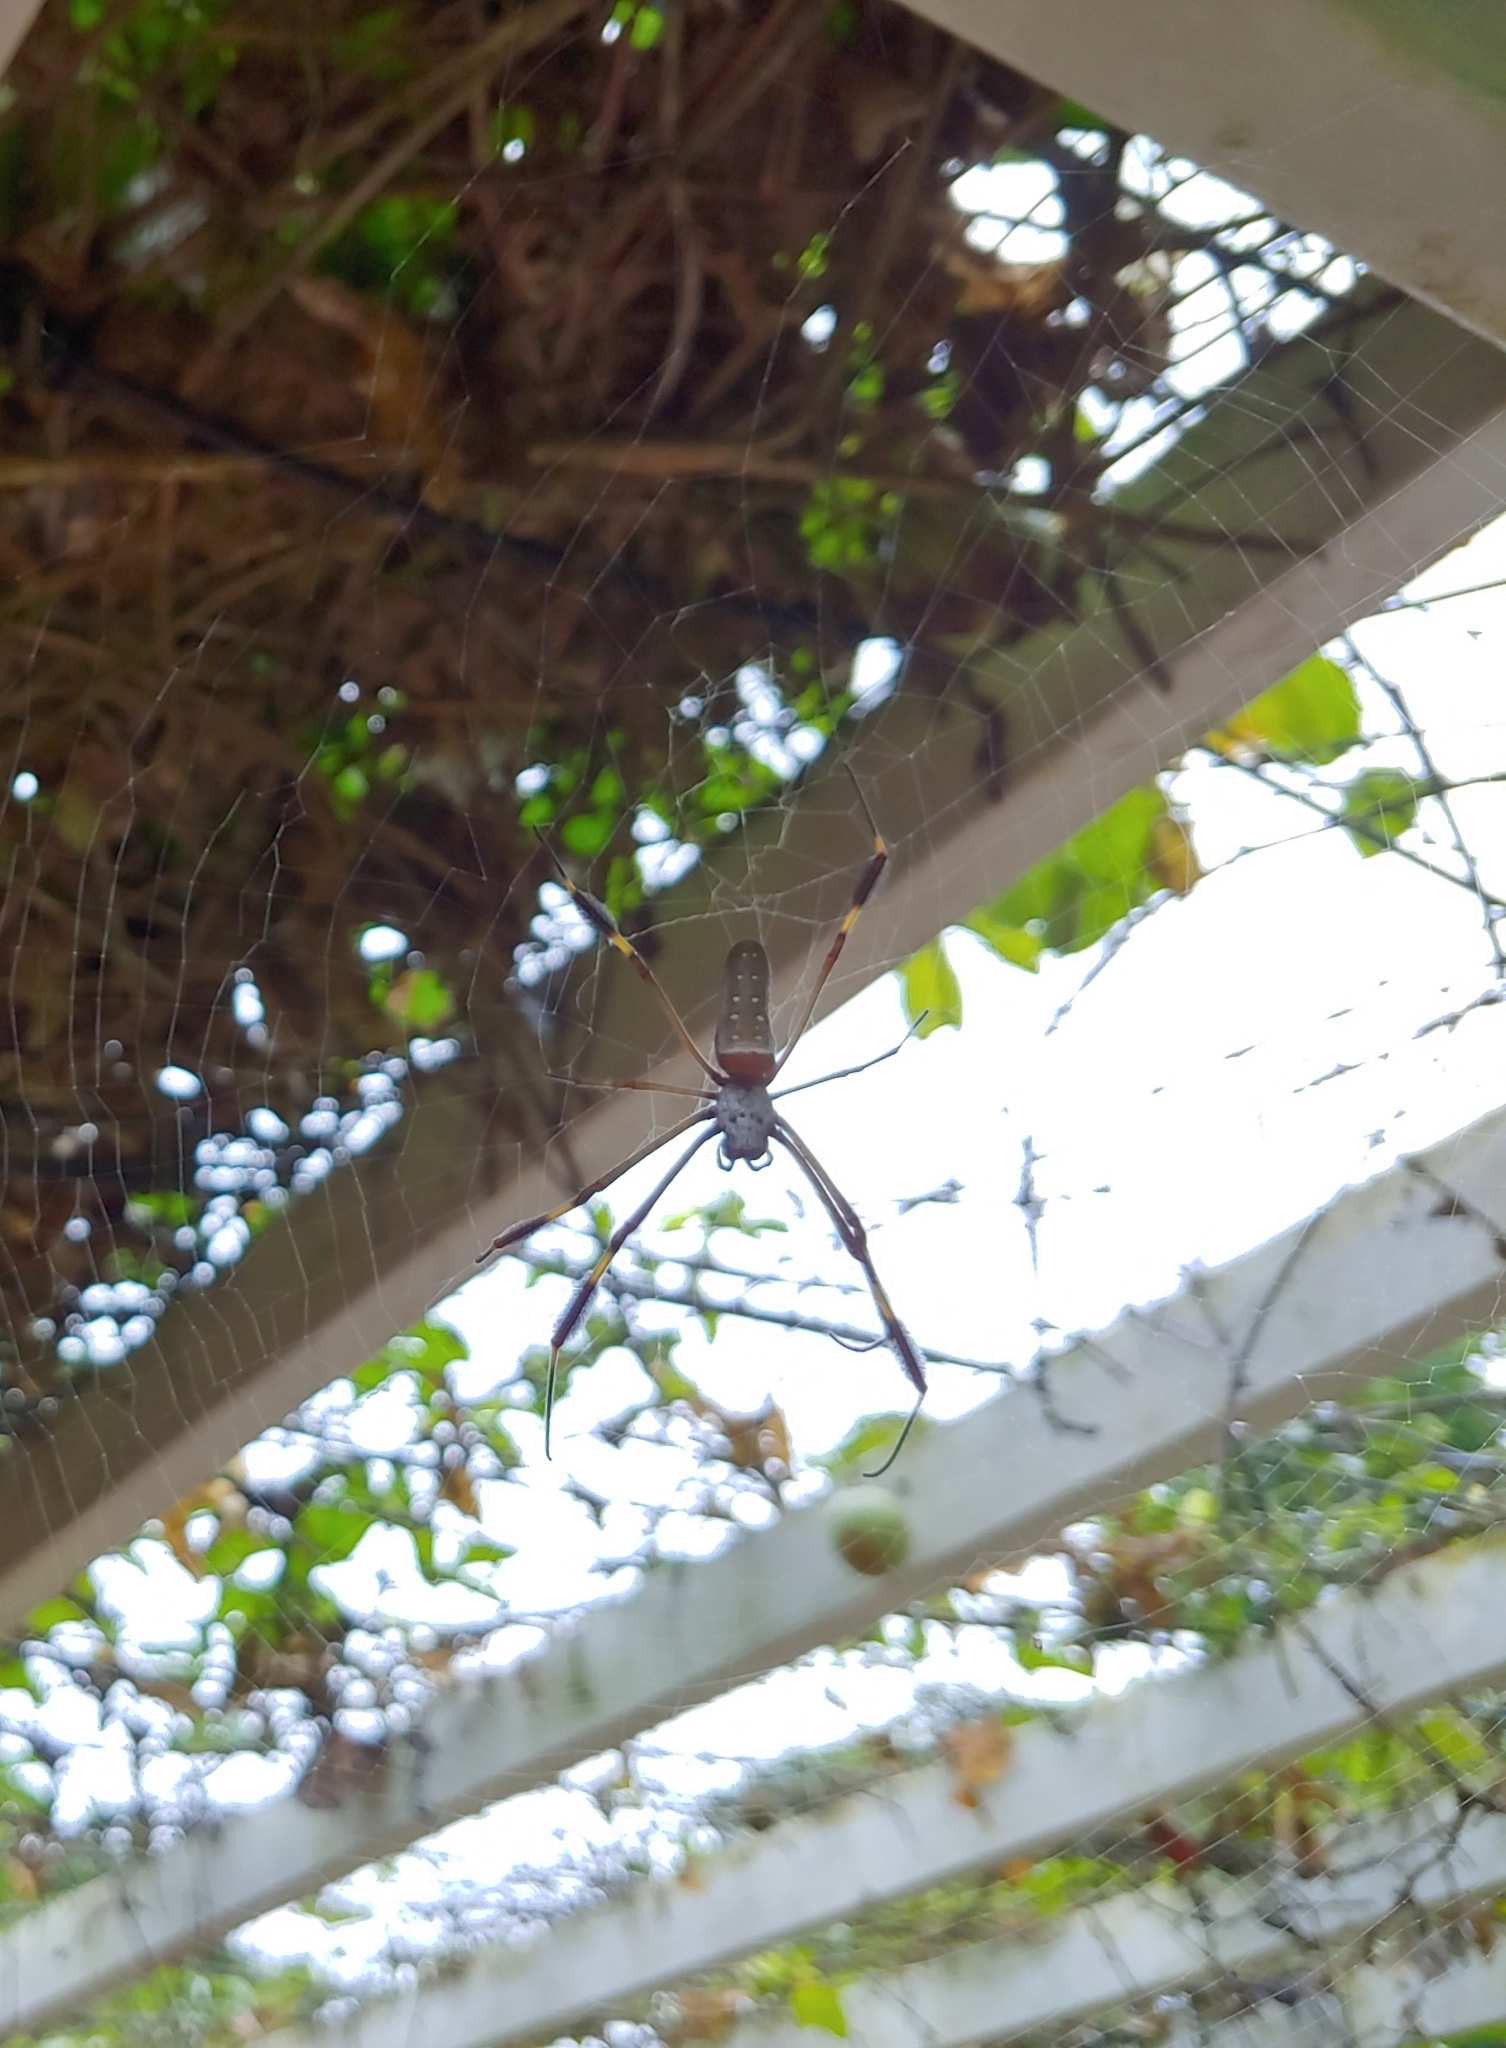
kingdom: Animalia
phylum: Arthropoda
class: Arachnida
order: Araneae
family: Araneidae
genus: Trichonephila
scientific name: Trichonephila clavipes
